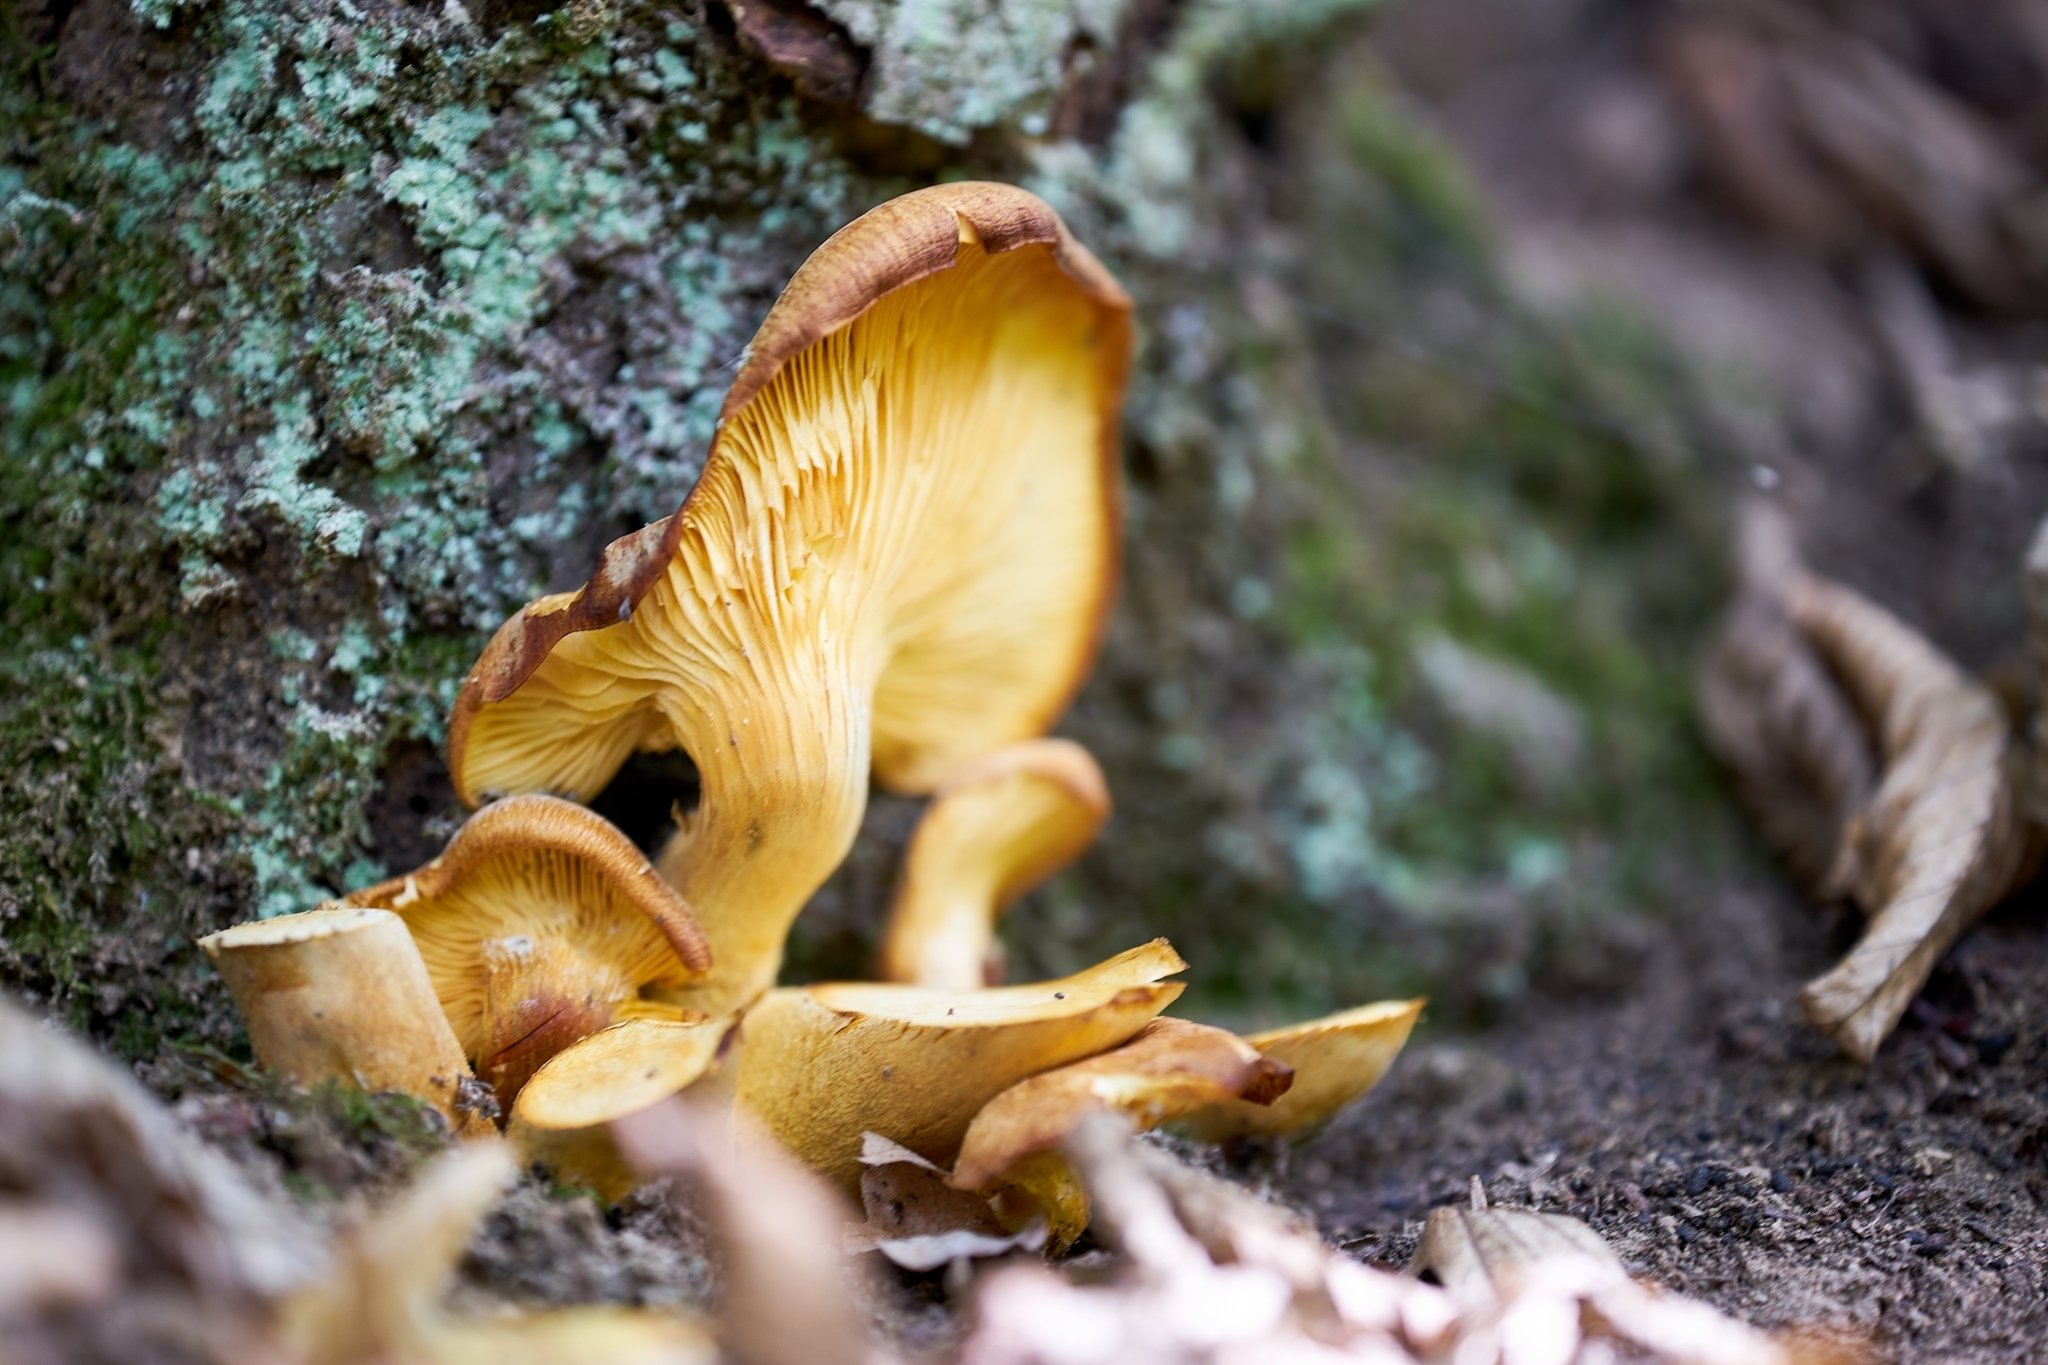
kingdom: Fungi
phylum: Basidiomycota
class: Agaricomycetes
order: Agaricales
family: Omphalotaceae
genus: Omphalotus
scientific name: Omphalotus olearius
